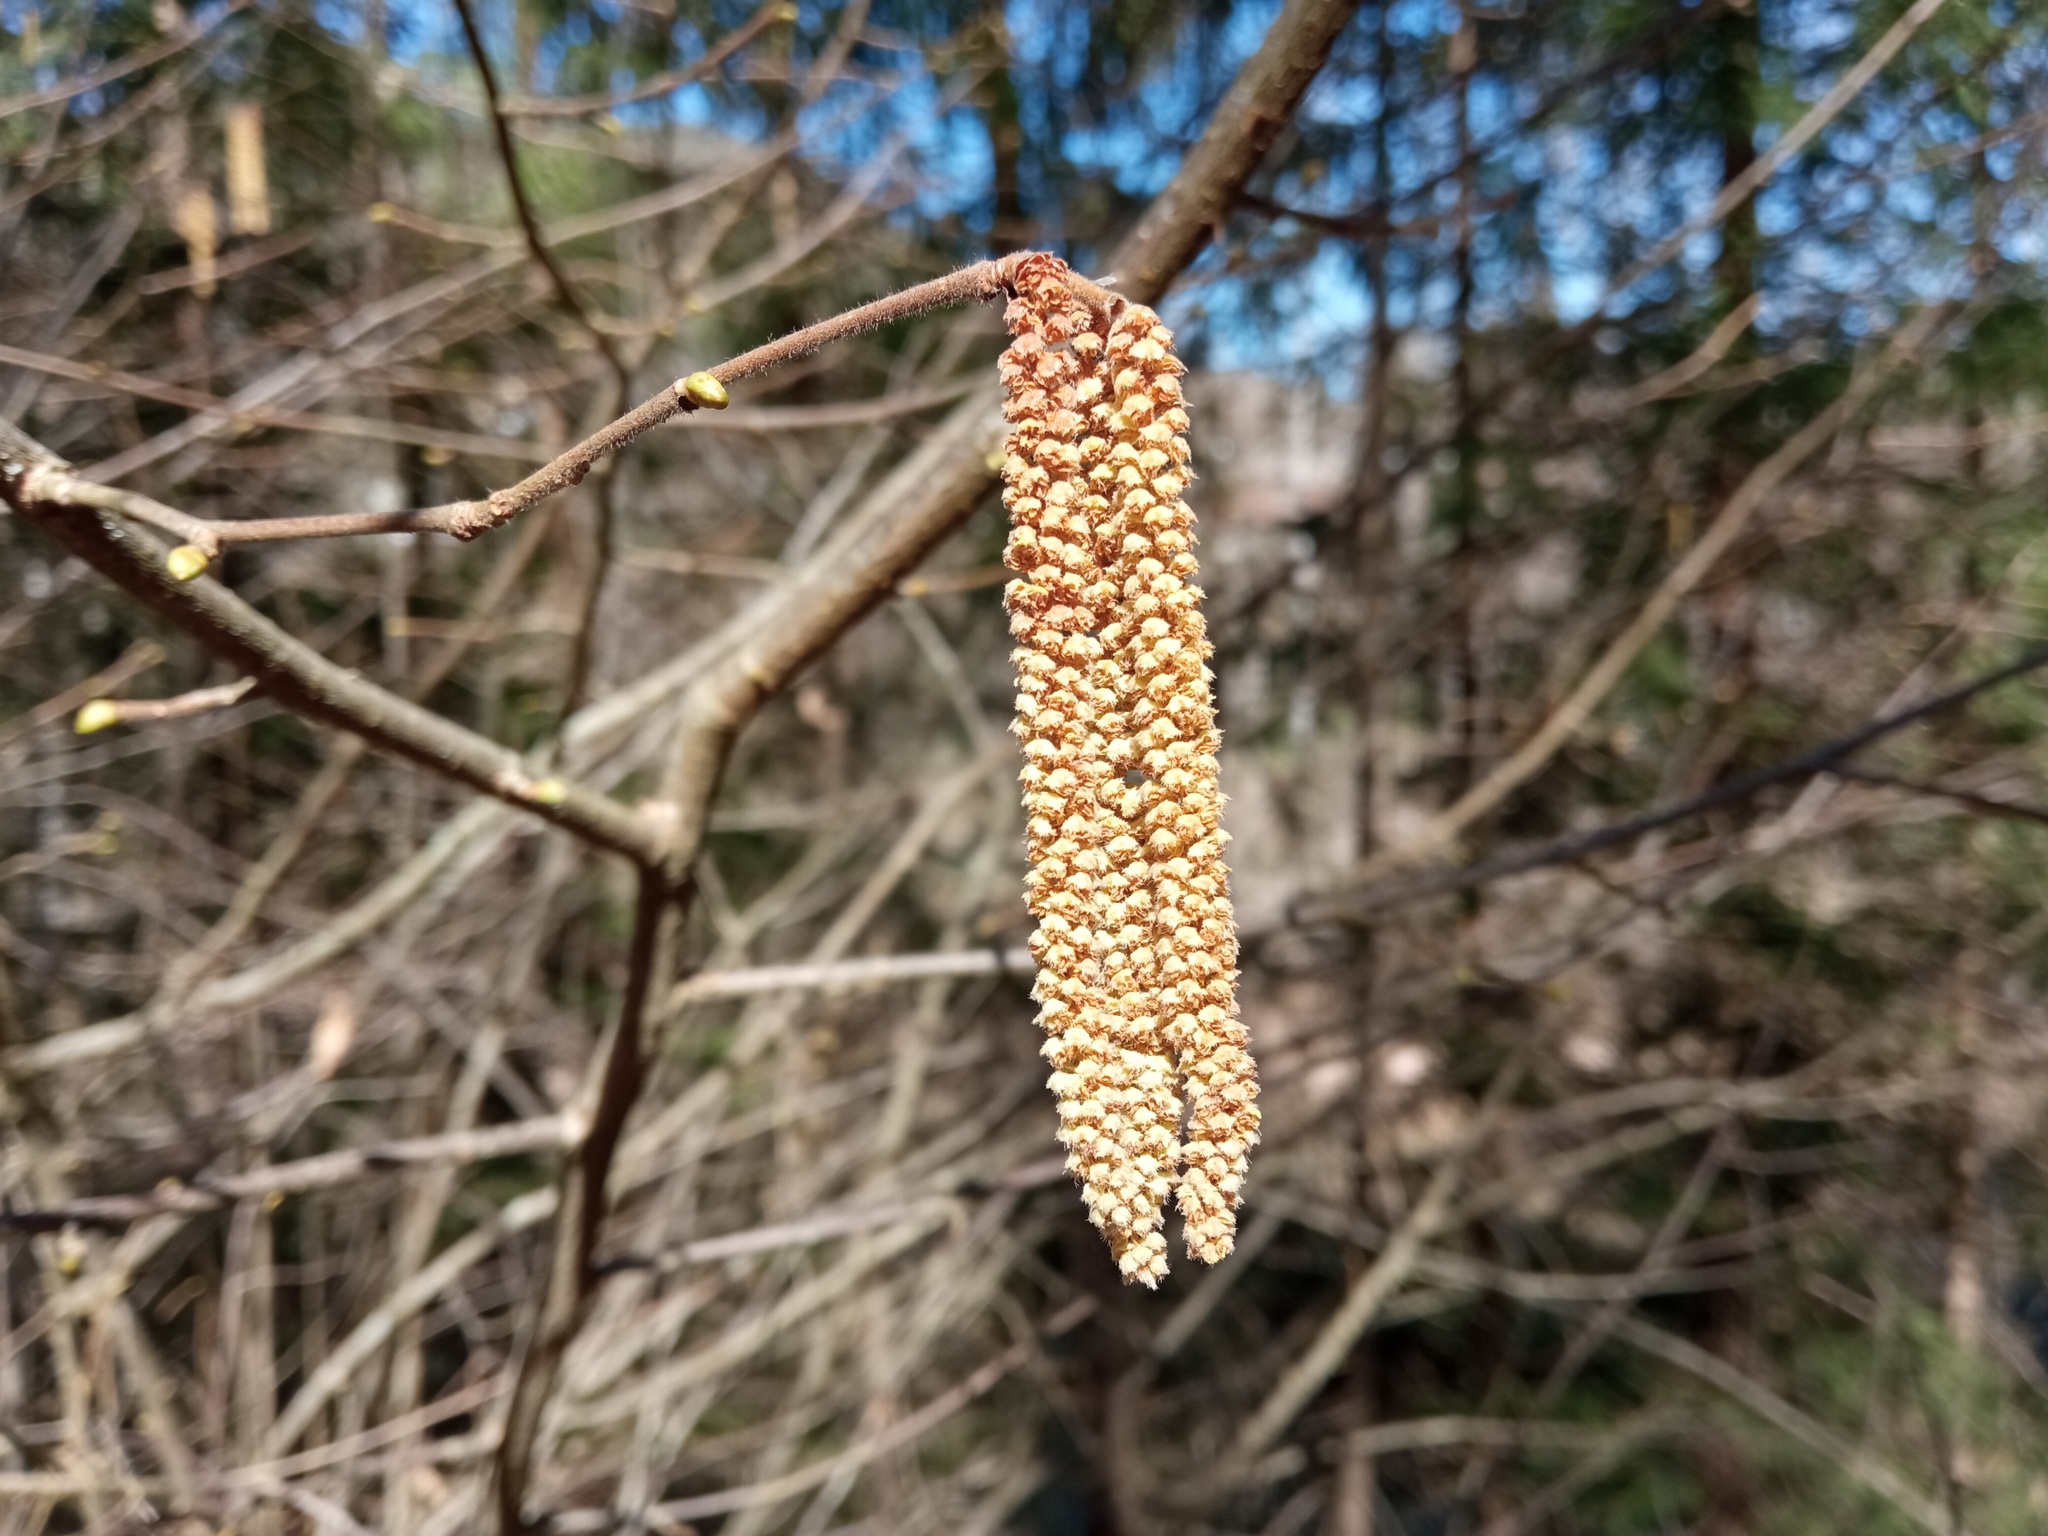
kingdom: Plantae
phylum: Tracheophyta
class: Magnoliopsida
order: Fagales
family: Betulaceae
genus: Corylus
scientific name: Corylus avellana
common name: European hazel
